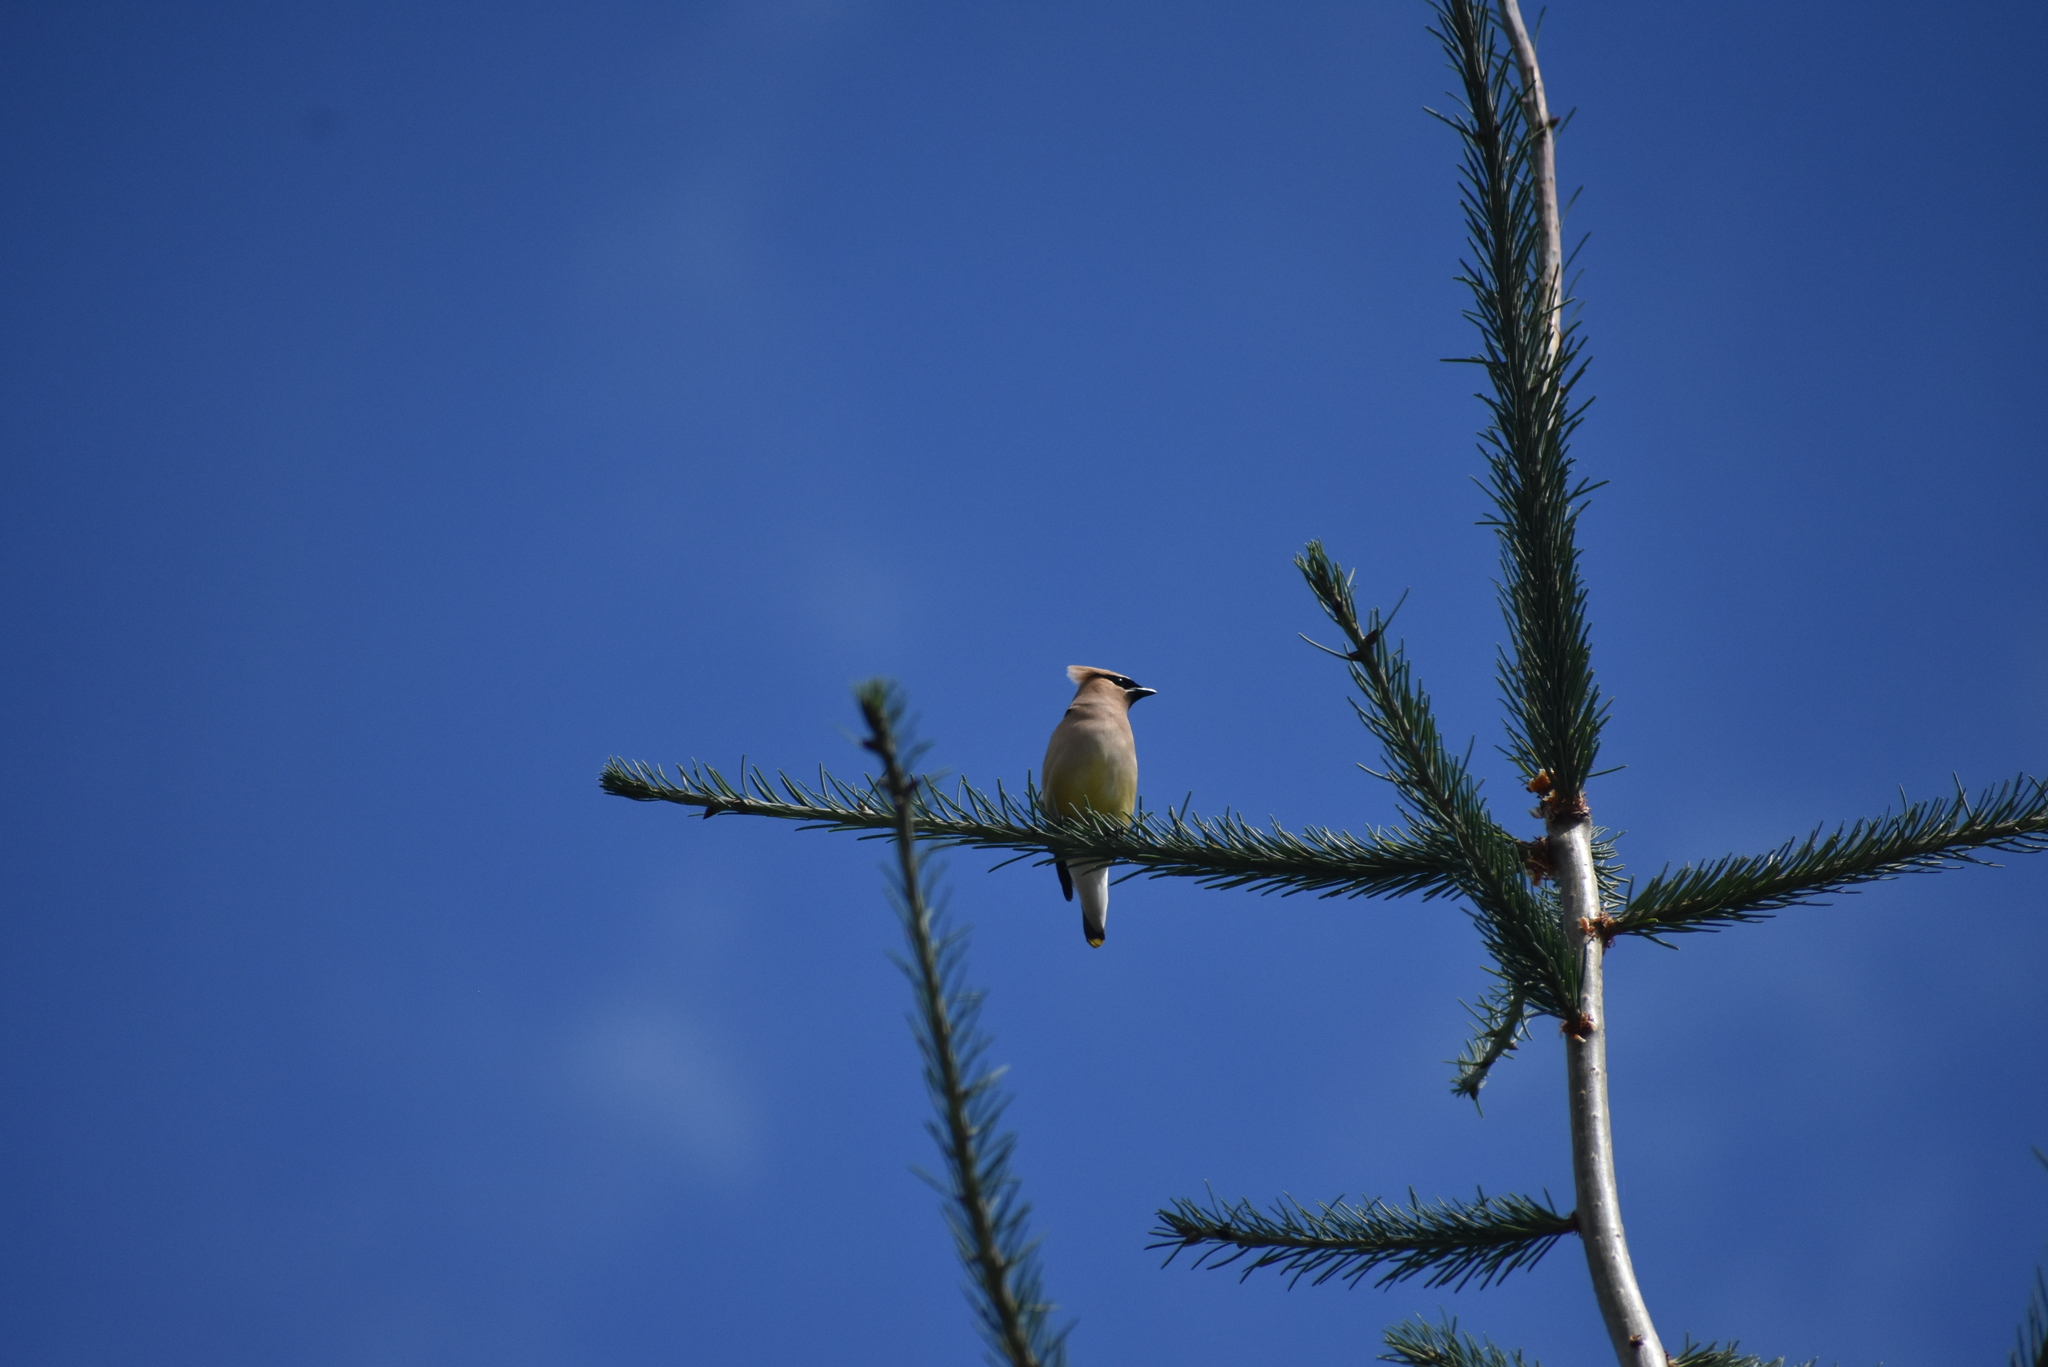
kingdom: Animalia
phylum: Chordata
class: Aves
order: Passeriformes
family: Bombycillidae
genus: Bombycilla
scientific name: Bombycilla cedrorum
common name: Cedar waxwing
